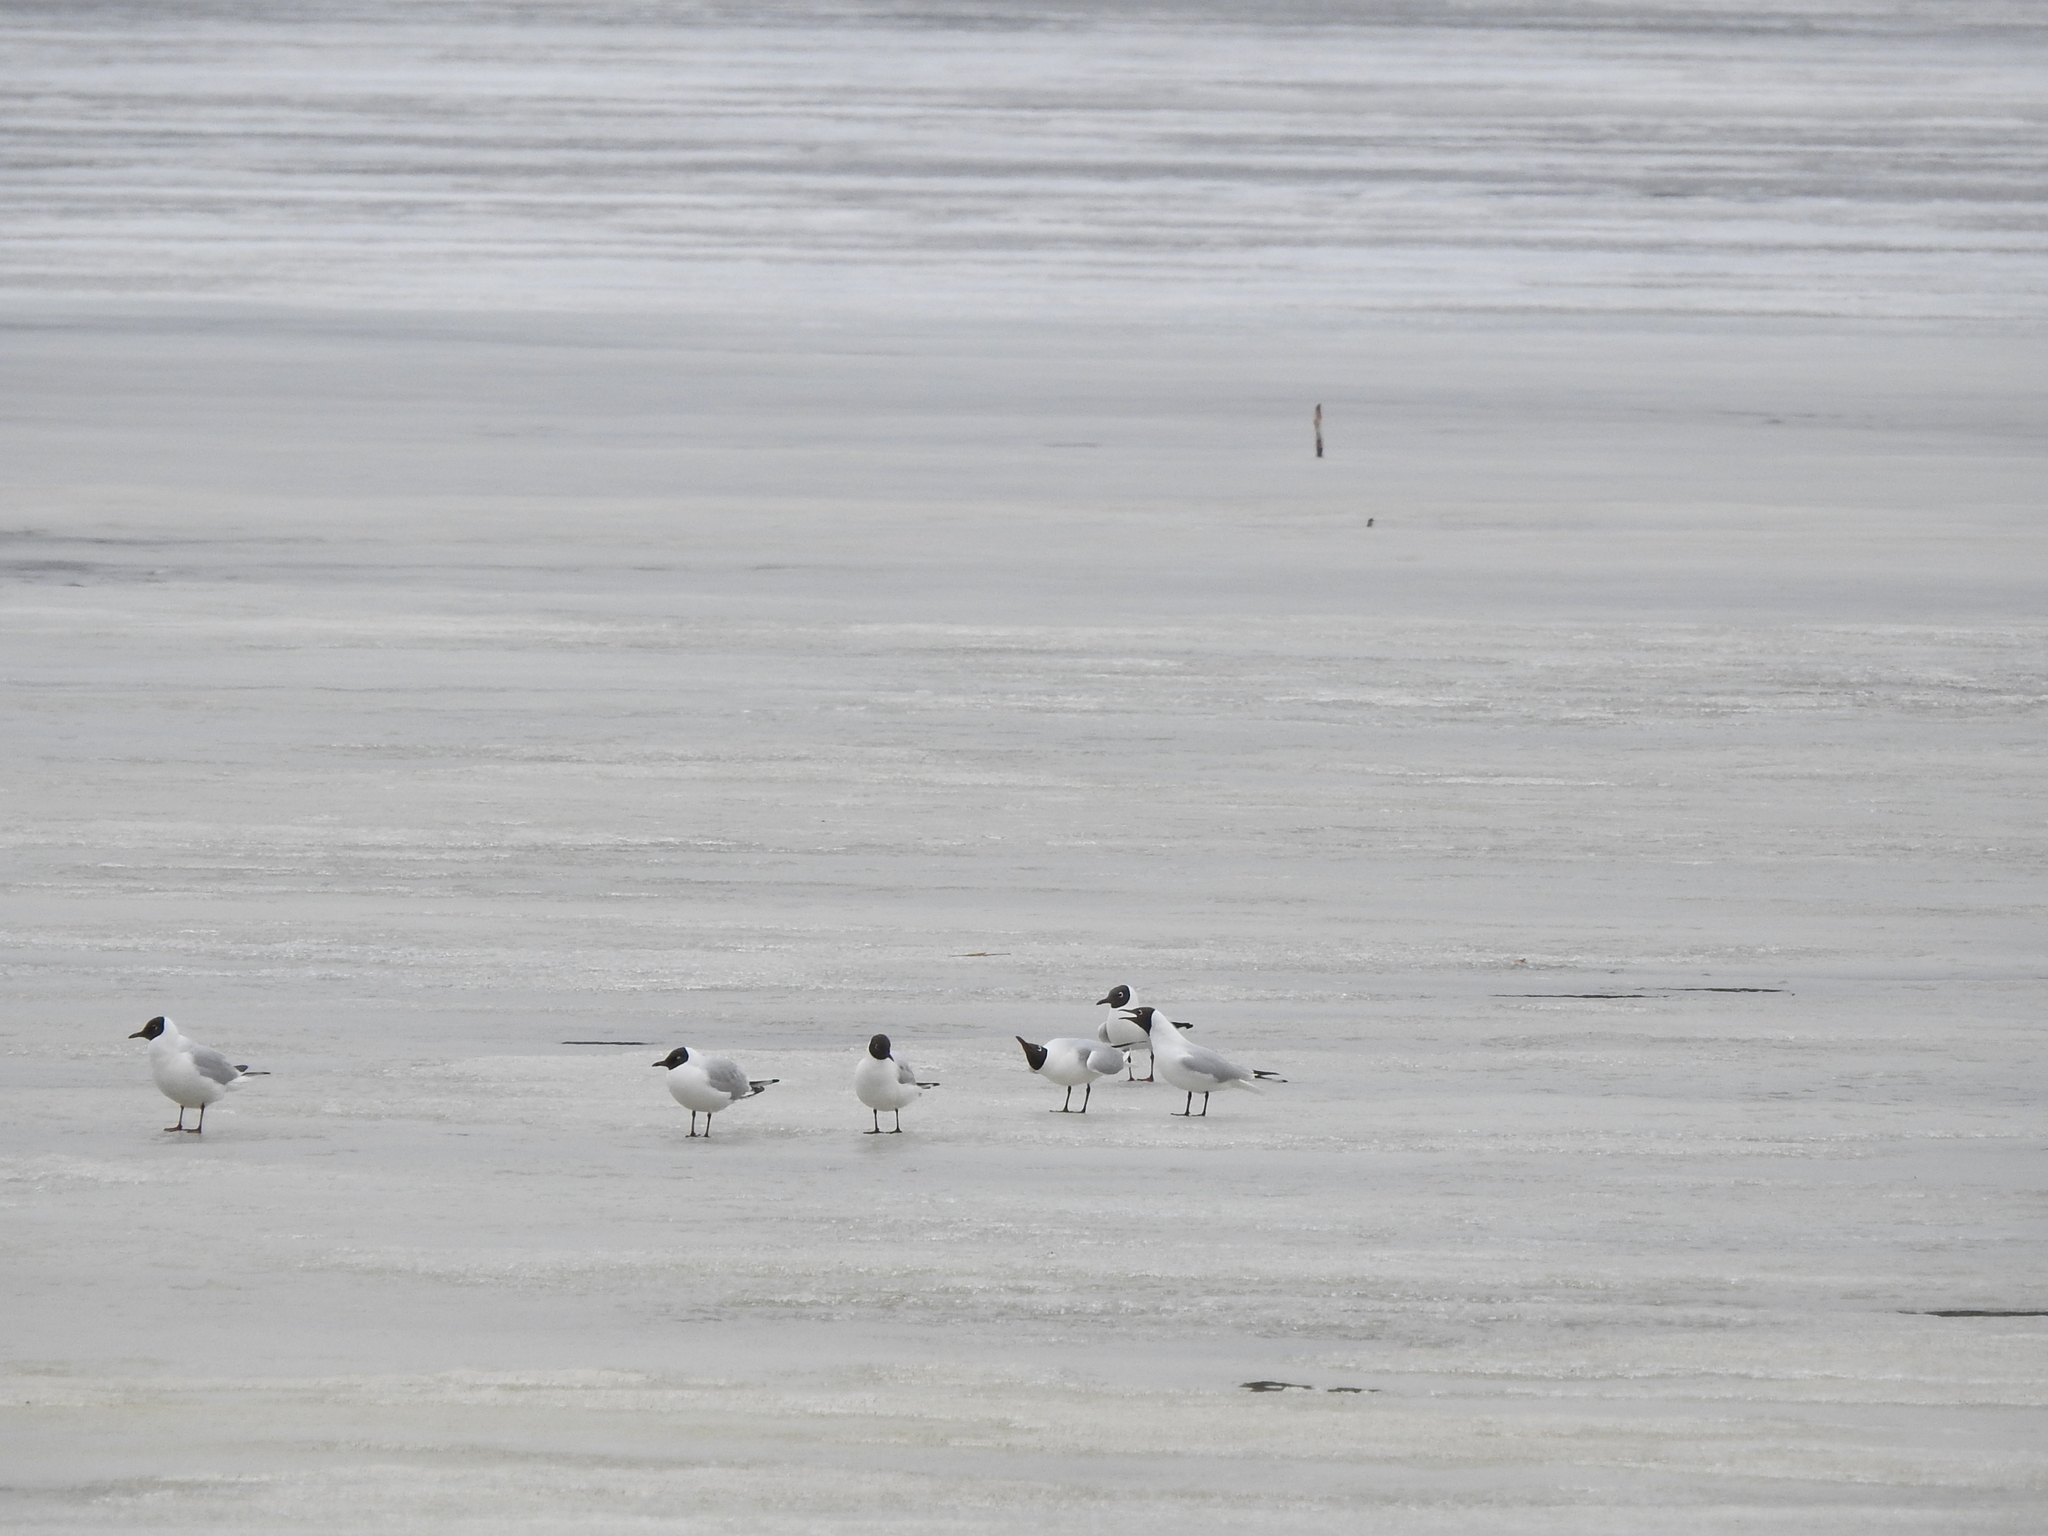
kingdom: Animalia
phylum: Chordata
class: Aves
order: Charadriiformes
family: Laridae
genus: Chroicocephalus
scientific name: Chroicocephalus ridibundus
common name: Black-headed gull
